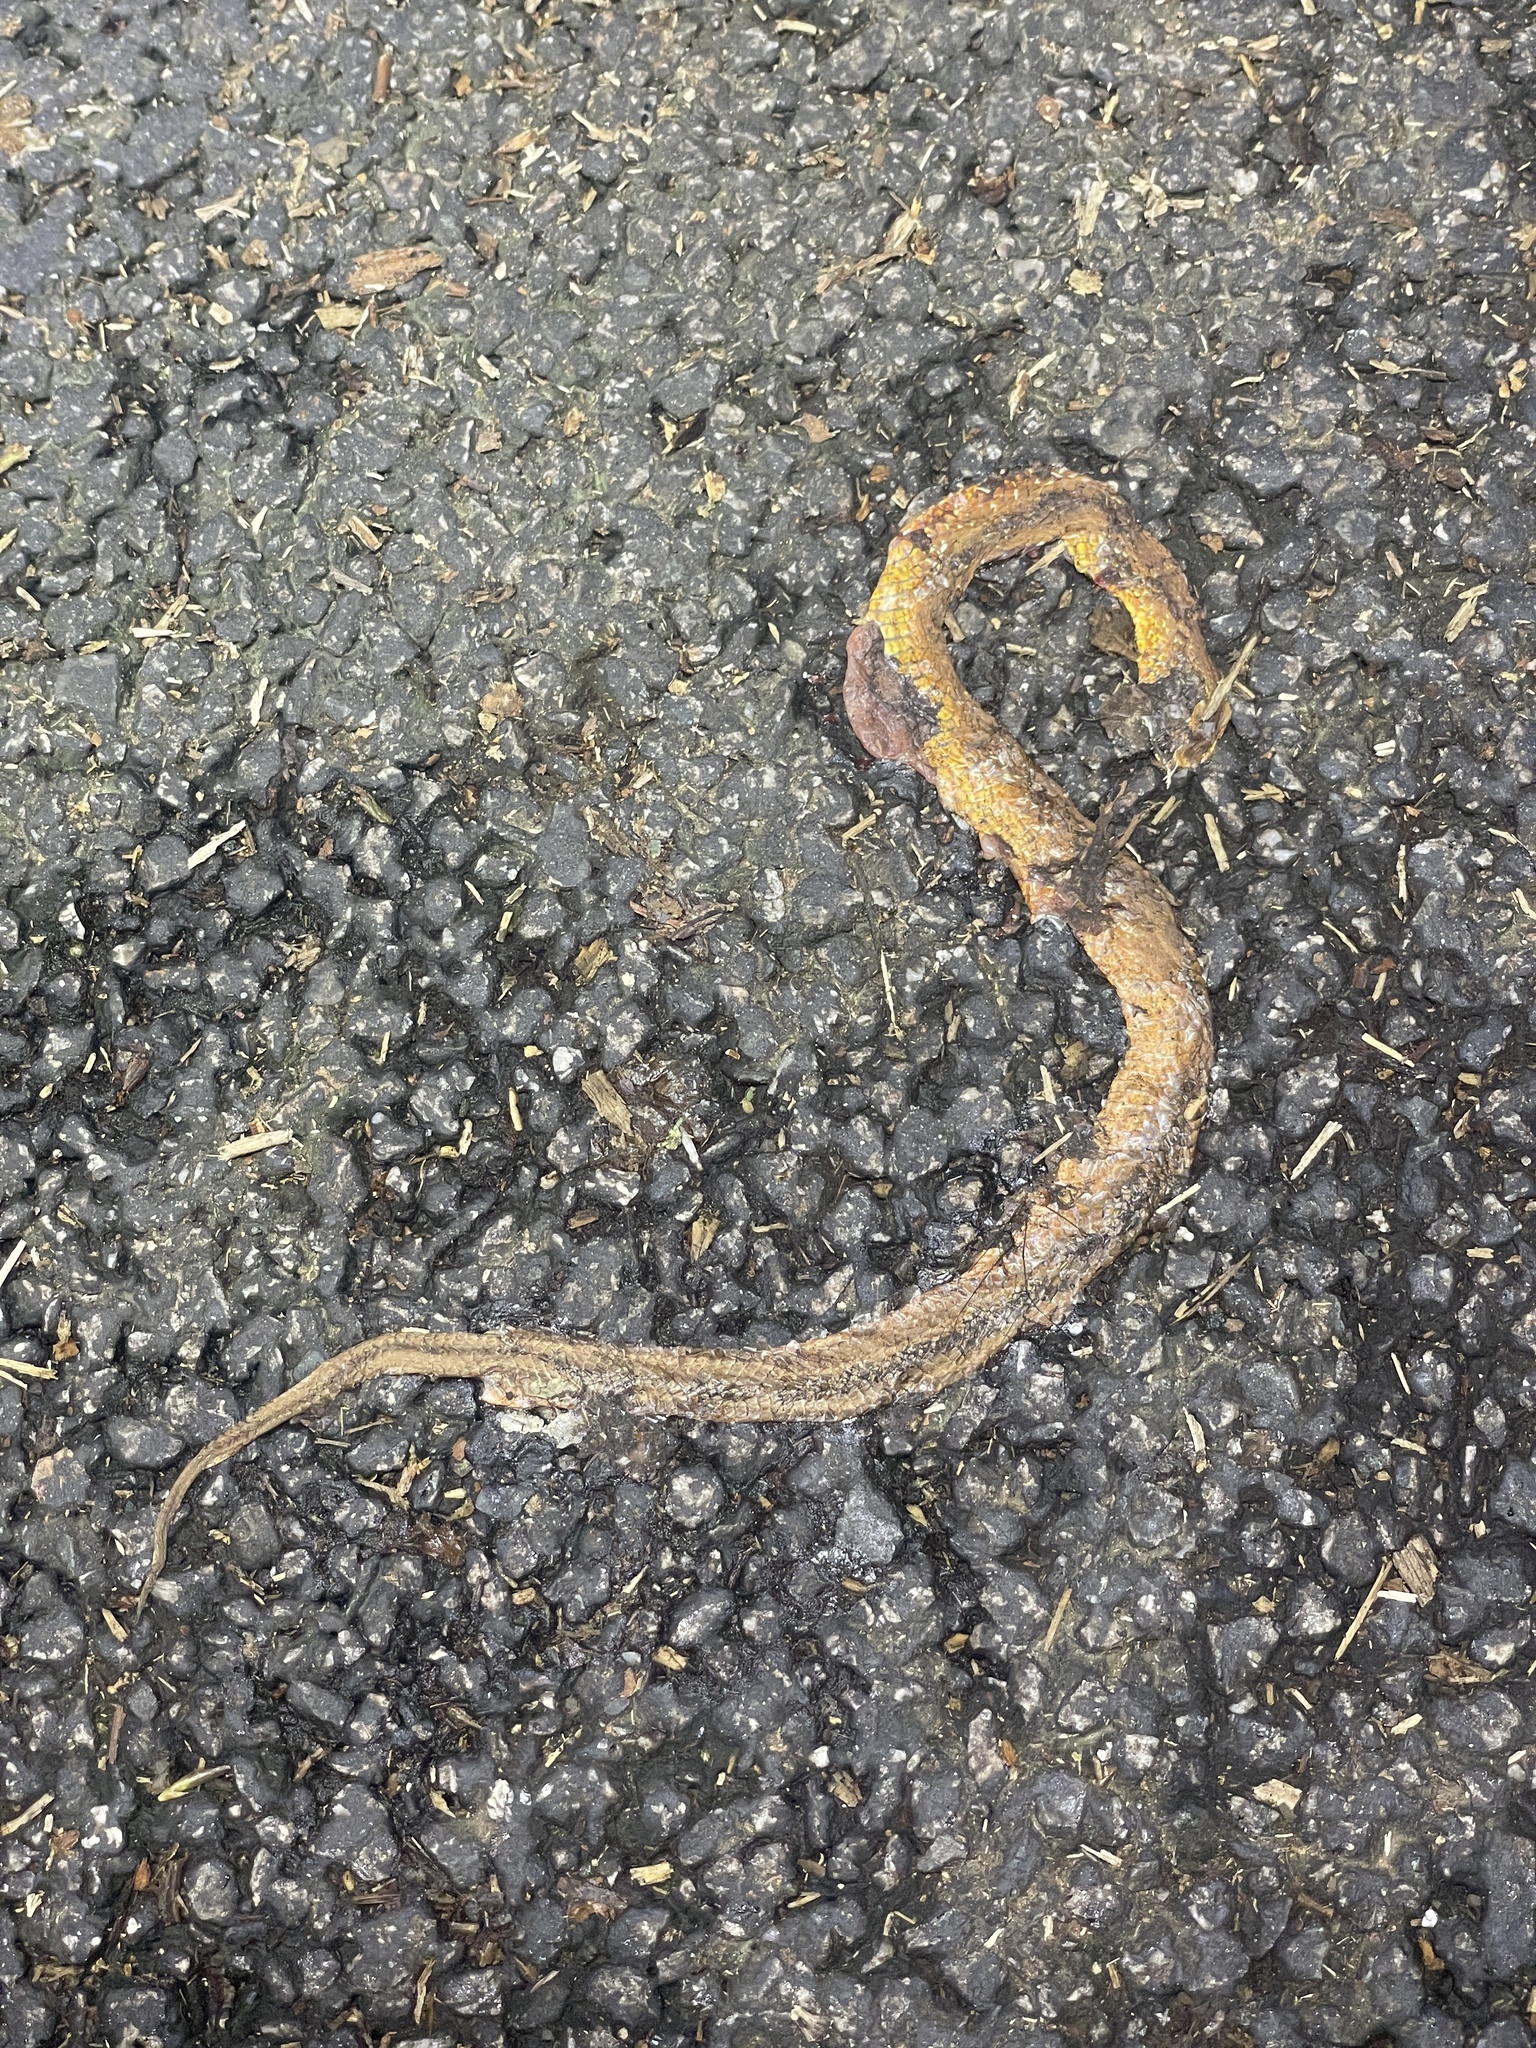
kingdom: Animalia
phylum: Chordata
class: Squamata
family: Pseudaspididae
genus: Psammodynastes
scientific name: Psammodynastes pulverulentus
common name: Common mock viper
